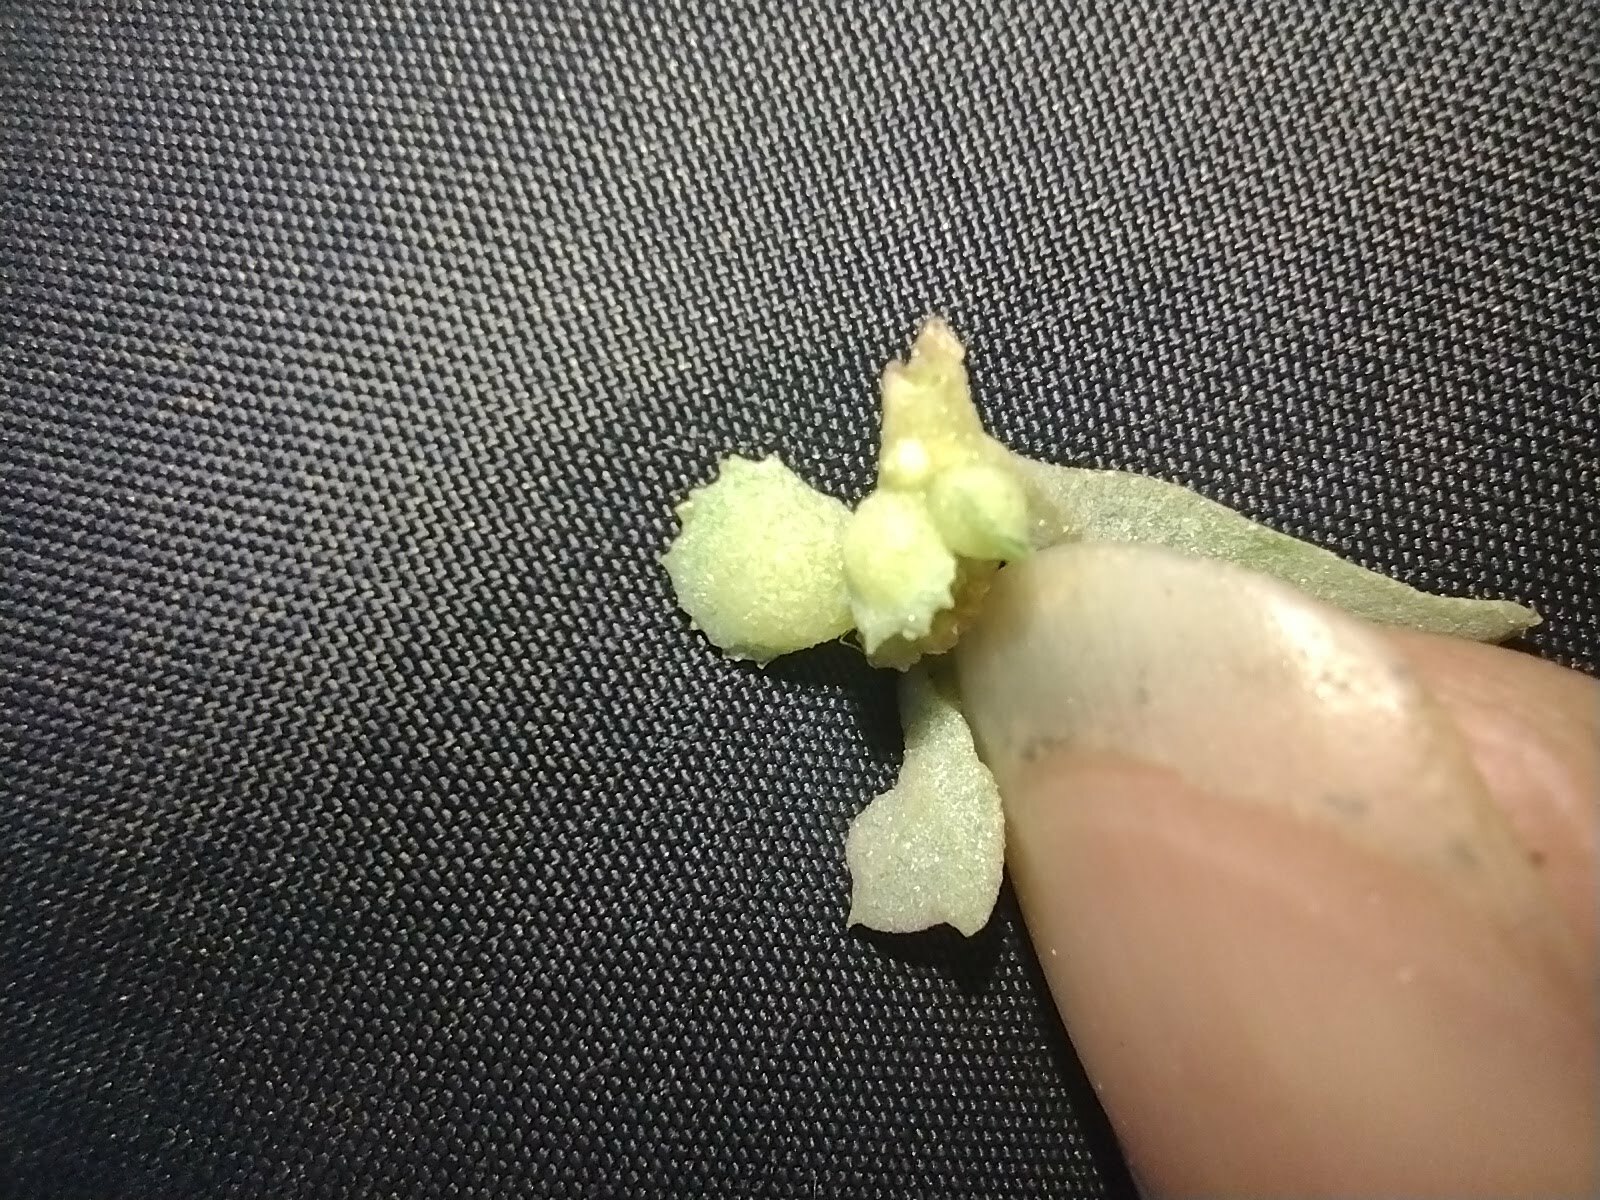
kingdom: Plantae
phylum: Tracheophyta
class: Magnoliopsida
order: Caryophyllales
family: Amaranthaceae
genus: Atriplex
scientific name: Atriplex muelleri
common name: Mueller's saltbush
